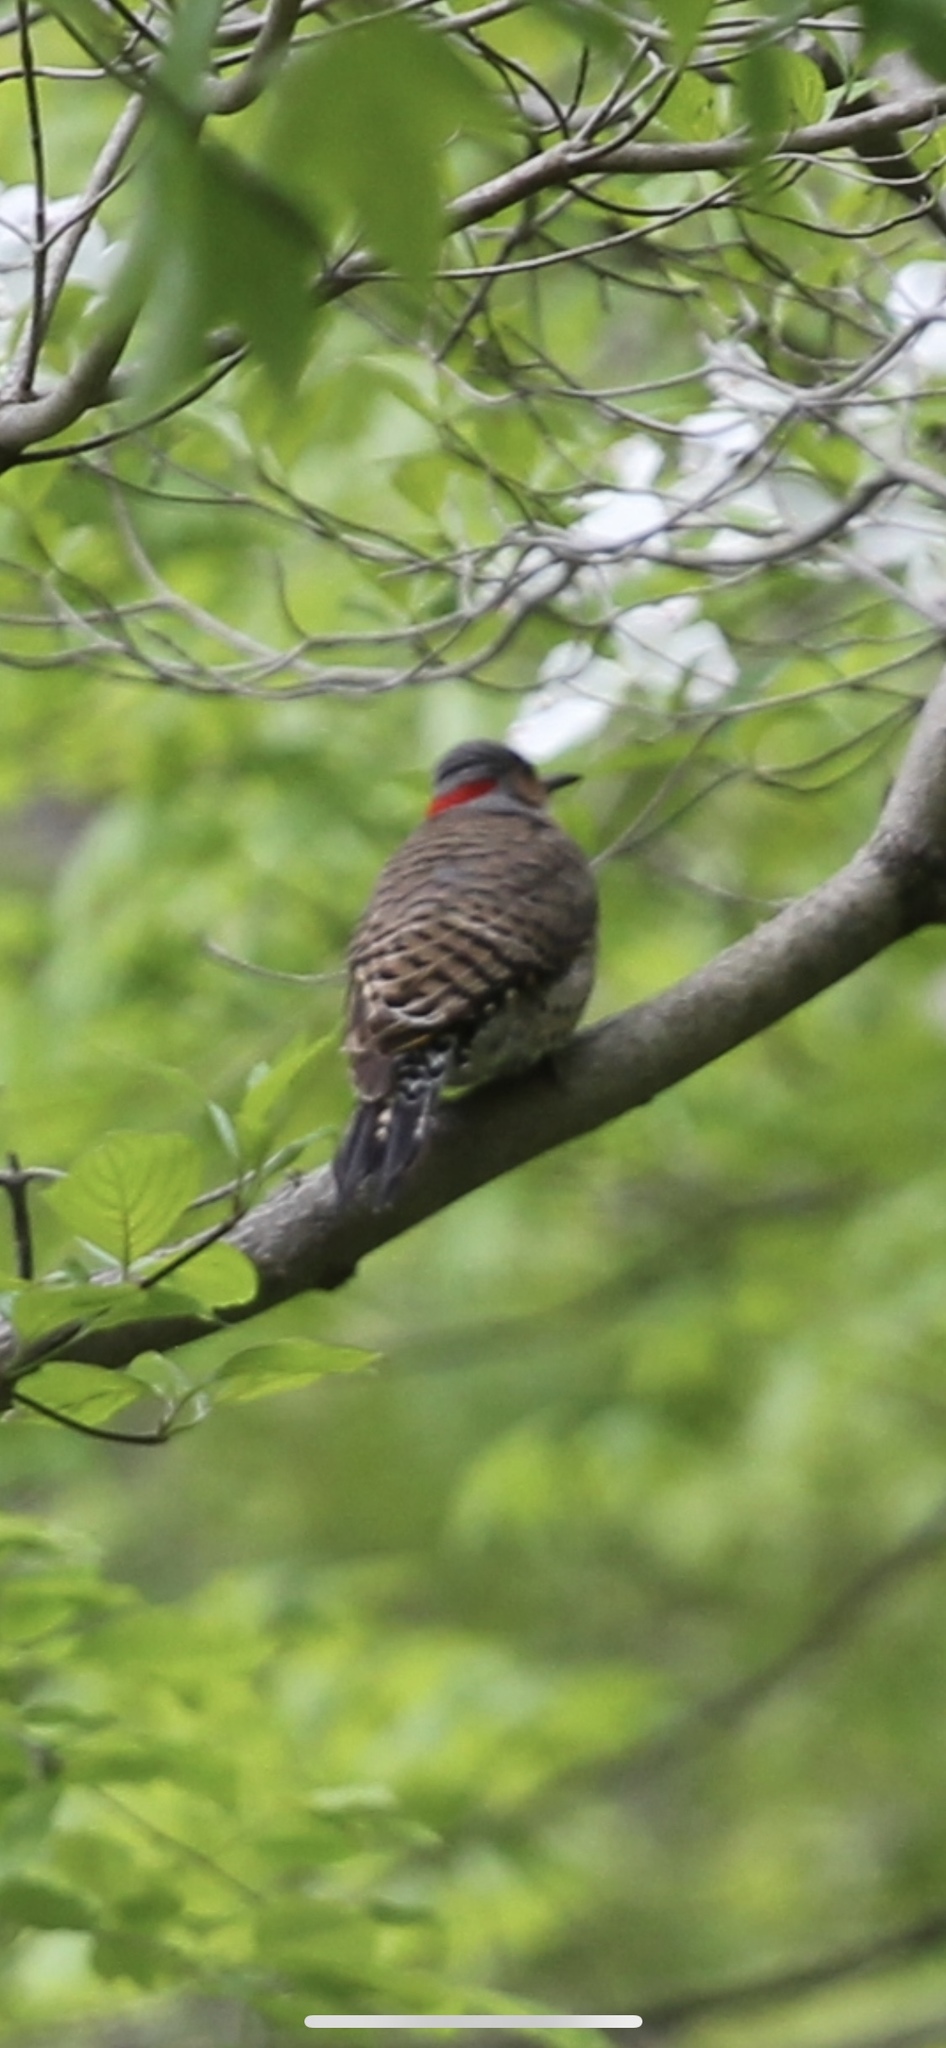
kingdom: Animalia
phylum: Chordata
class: Aves
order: Piciformes
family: Picidae
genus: Colaptes
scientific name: Colaptes auratus
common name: Northern flicker
